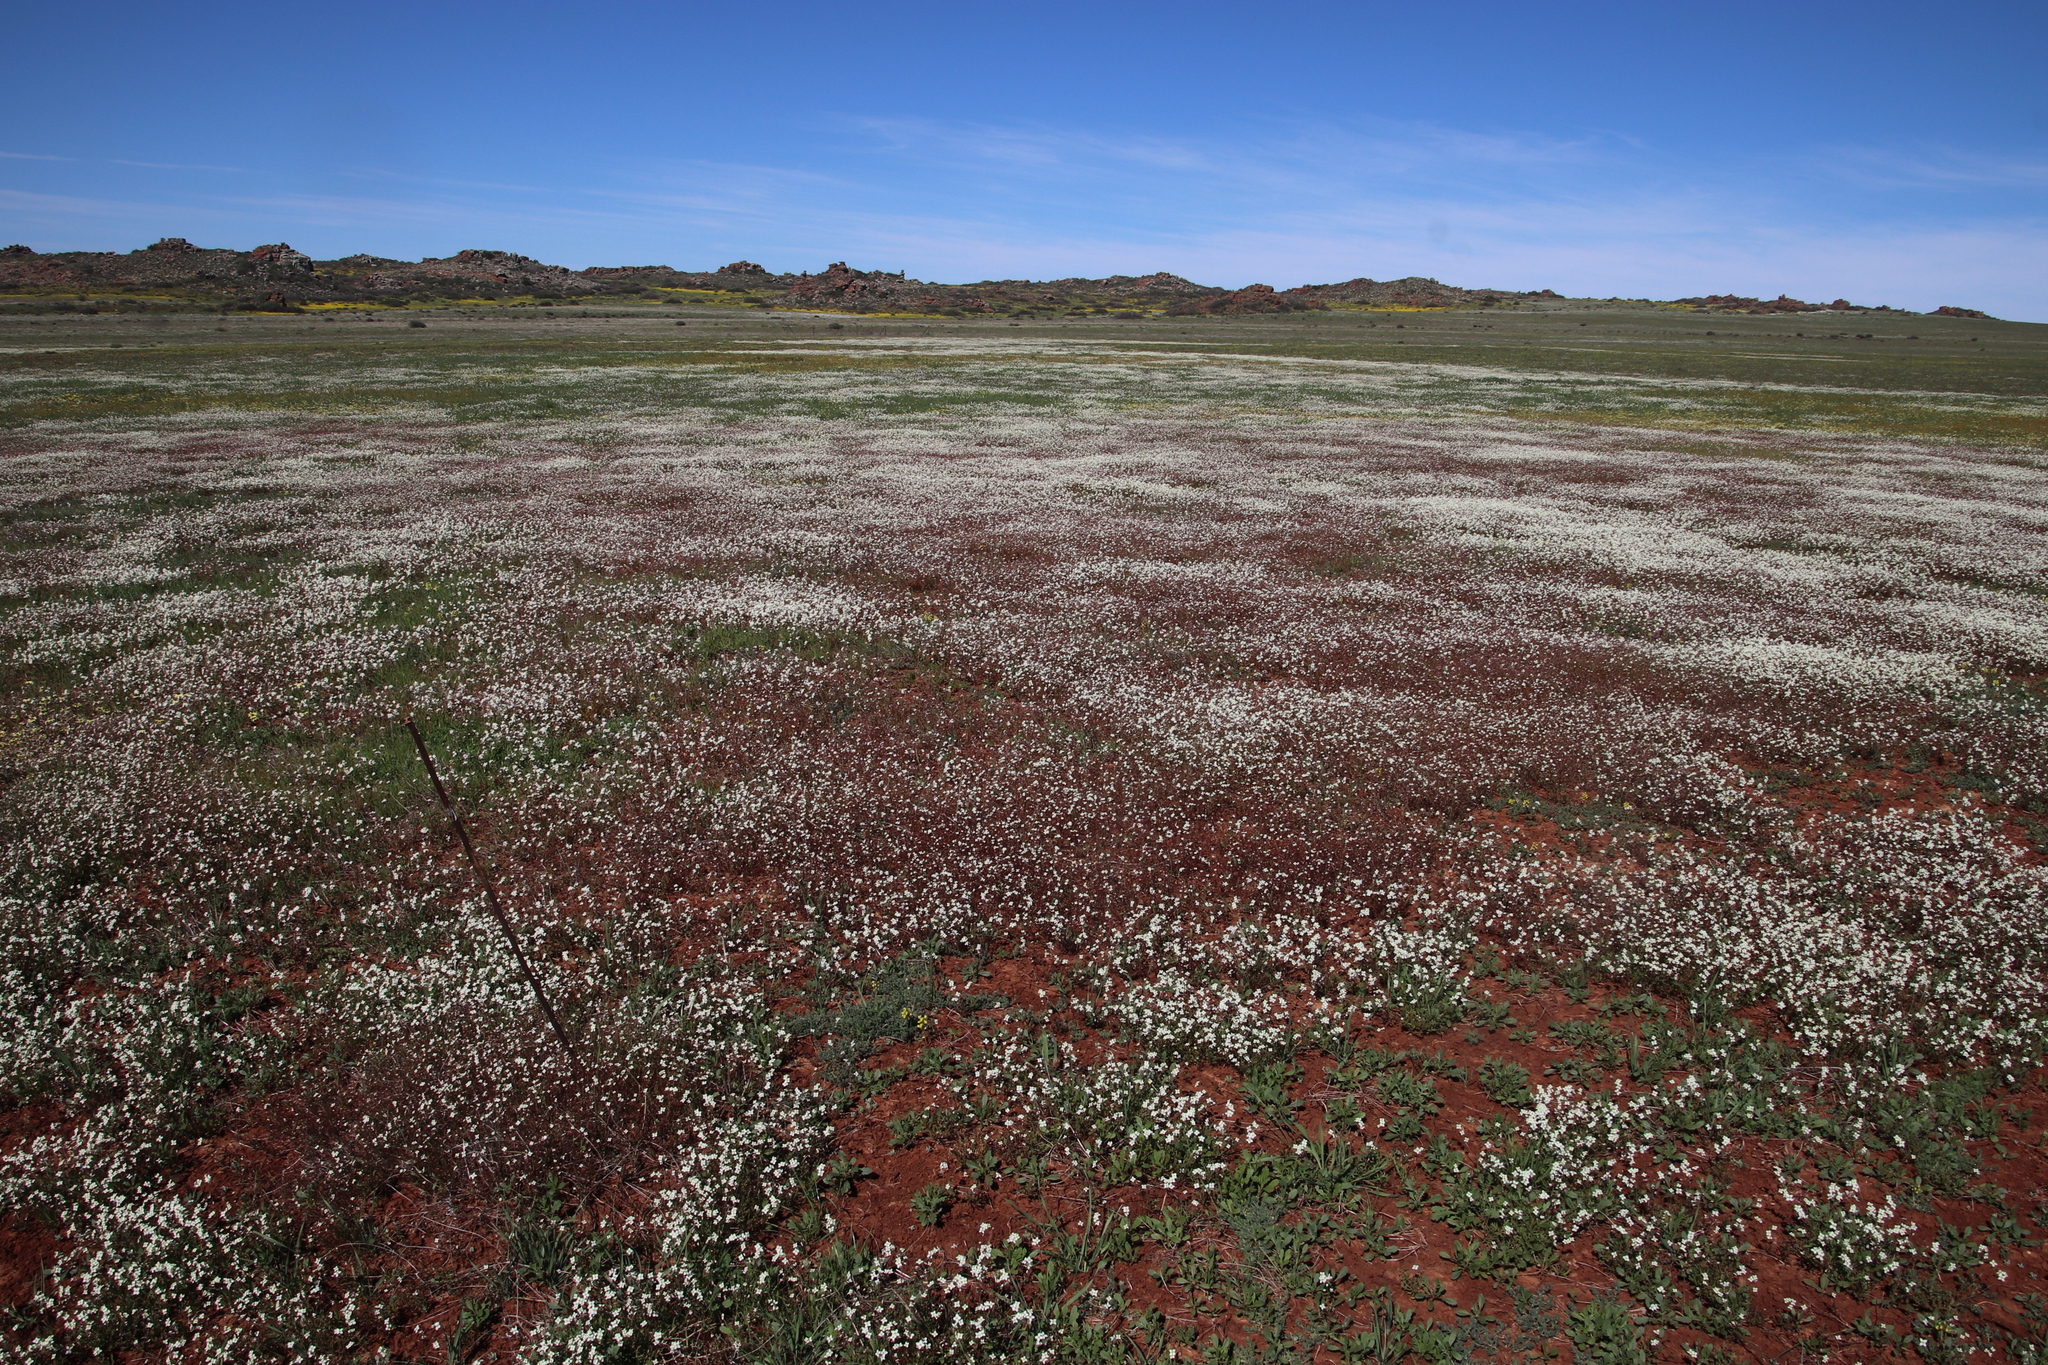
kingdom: Plantae
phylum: Tracheophyta
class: Magnoliopsida
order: Brassicales
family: Brassicaceae
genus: Heliophila
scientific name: Heliophila collina
